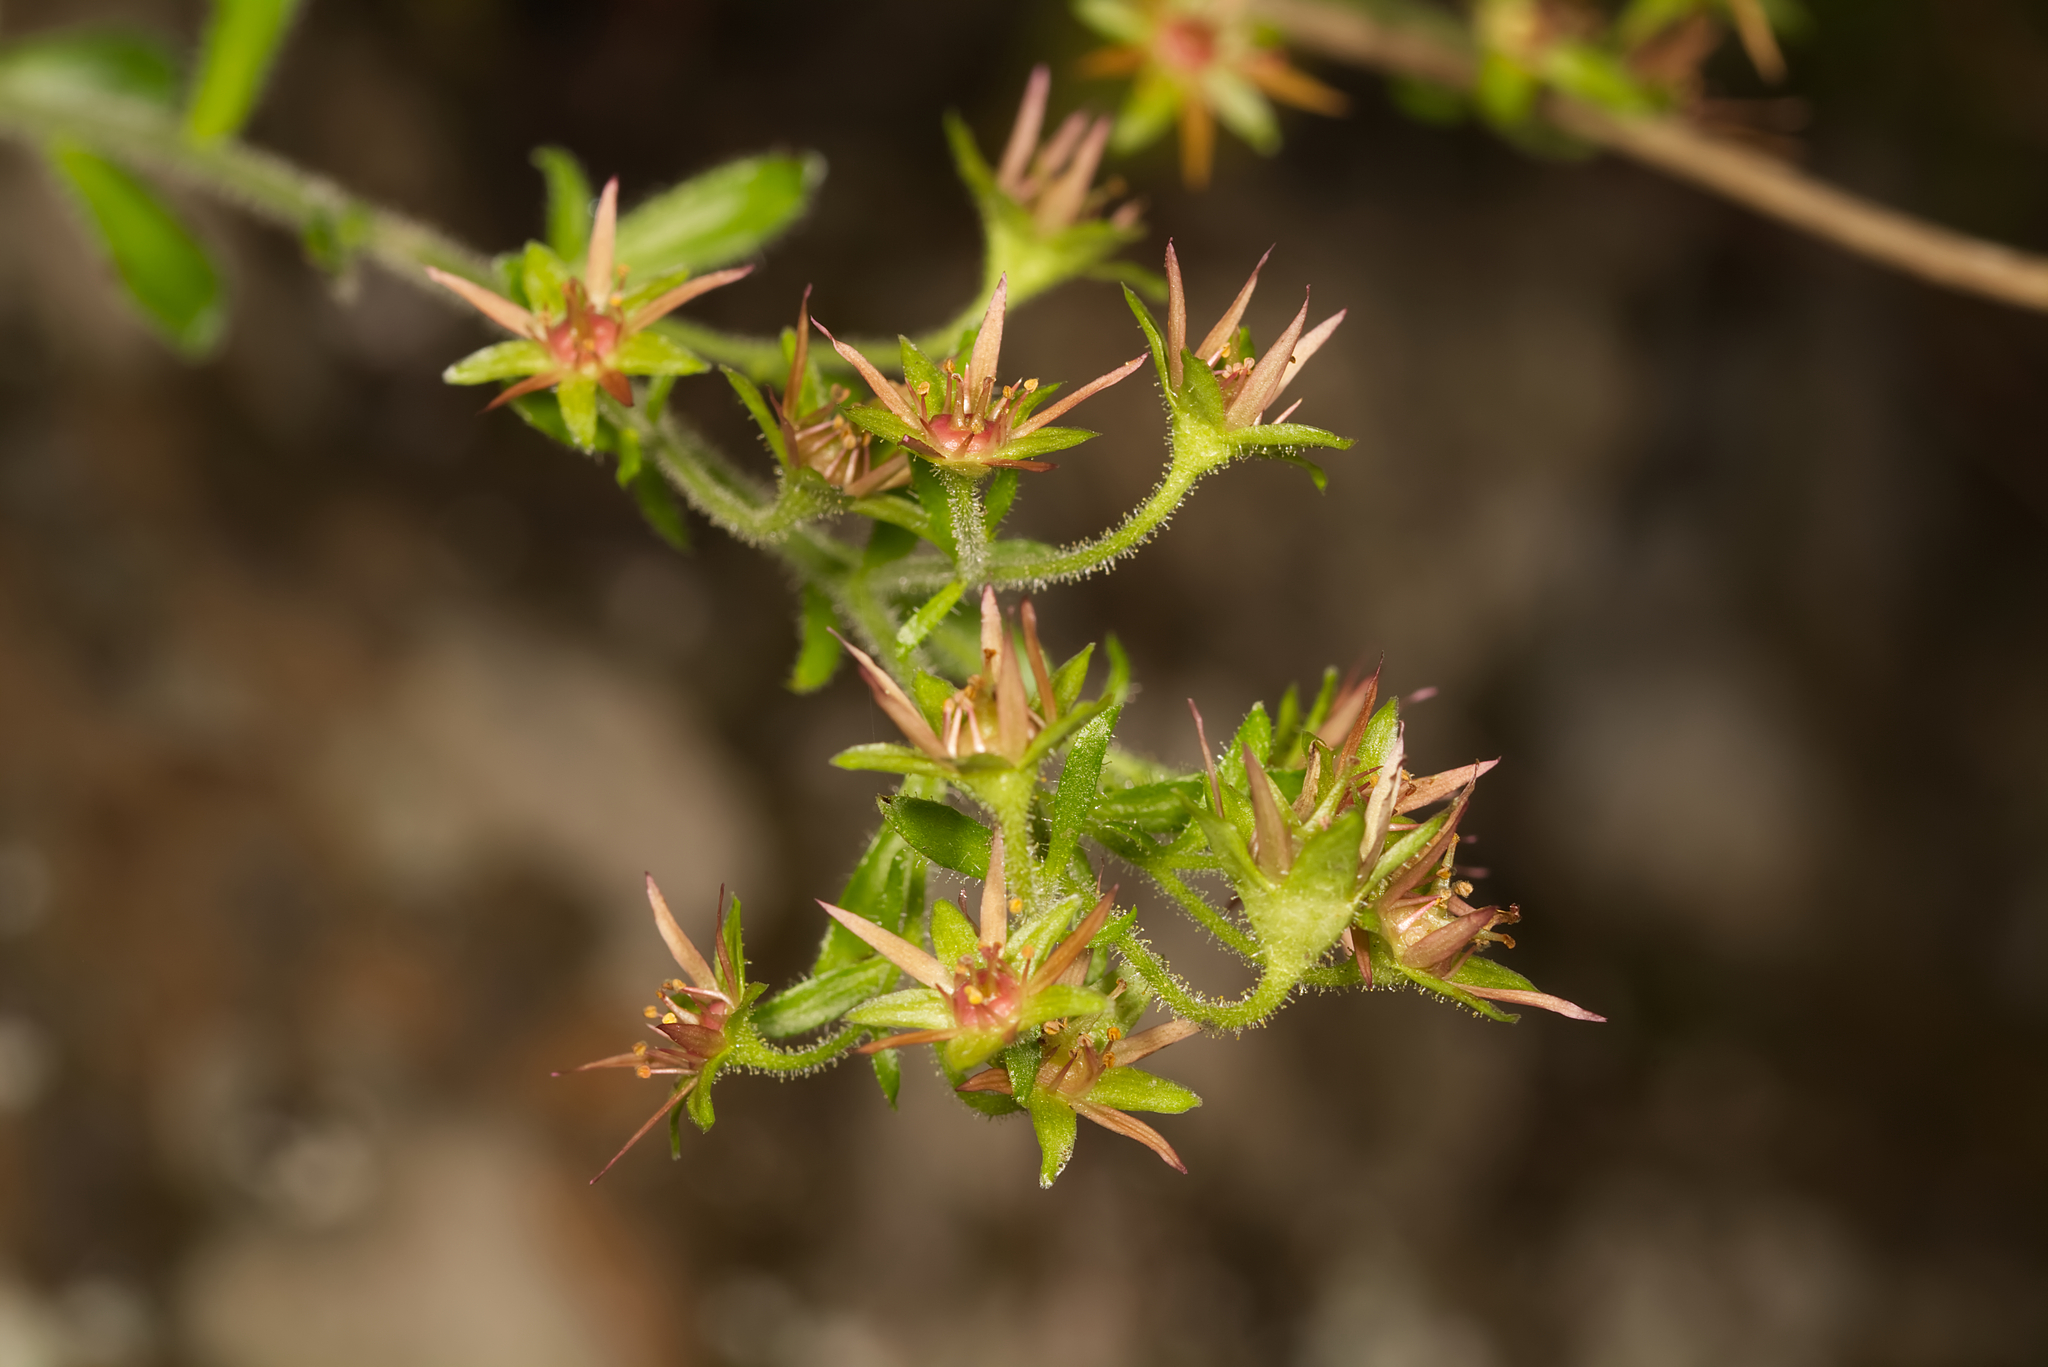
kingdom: Plantae
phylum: Tracheophyta
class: Magnoliopsida
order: Saxifragales
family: Saxifragaceae
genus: Saxifraga
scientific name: Saxifraga mutata
